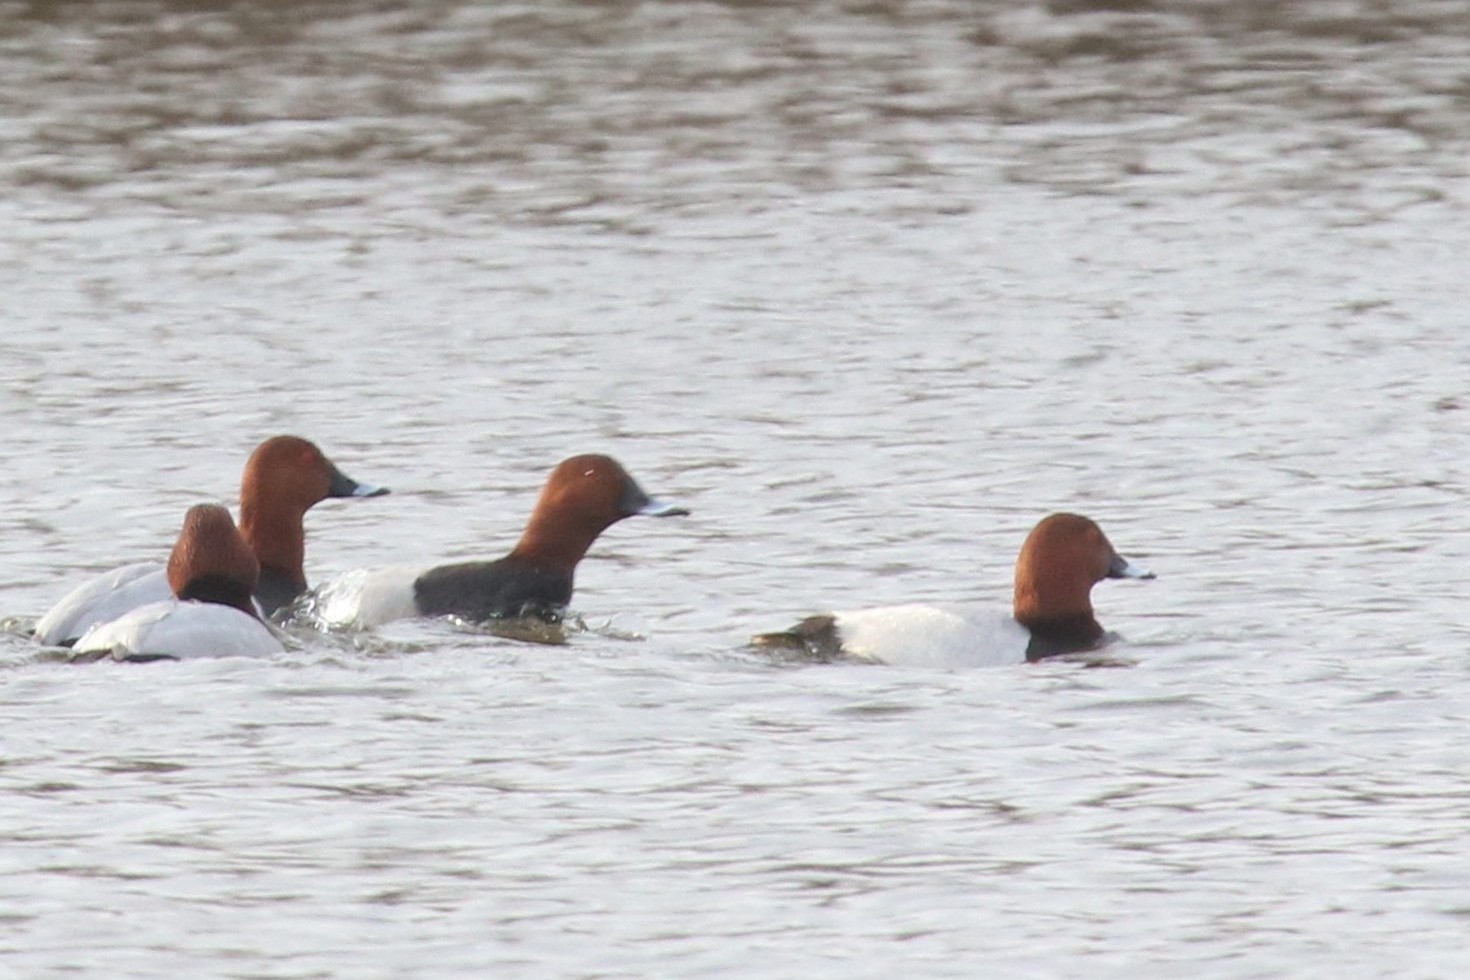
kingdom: Animalia
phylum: Chordata
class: Aves
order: Anseriformes
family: Anatidae
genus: Aythya
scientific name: Aythya ferina
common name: Common pochard
